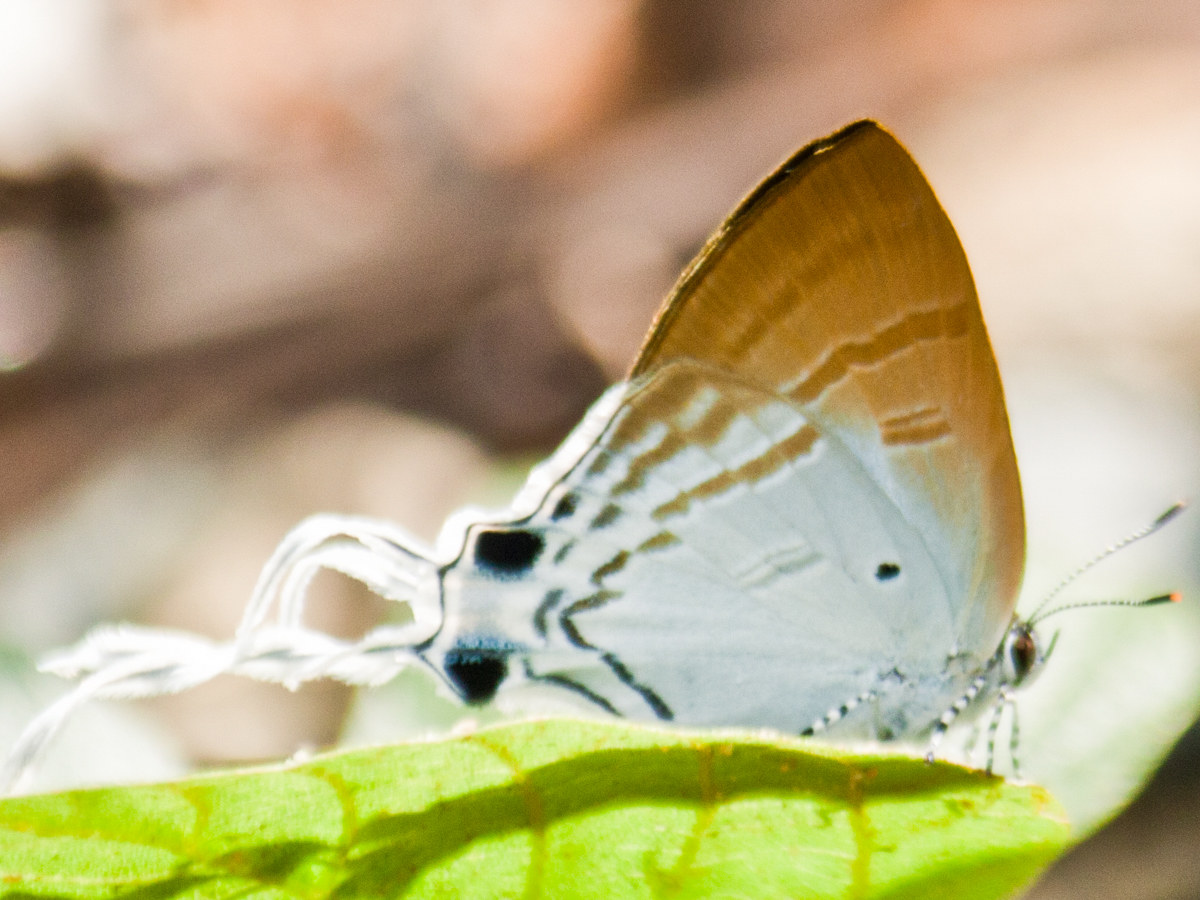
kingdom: Animalia
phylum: Arthropoda
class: Insecta
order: Lepidoptera
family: Lycaenidae
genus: Zeltus
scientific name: Zeltus amasa
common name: Fluffy tit
